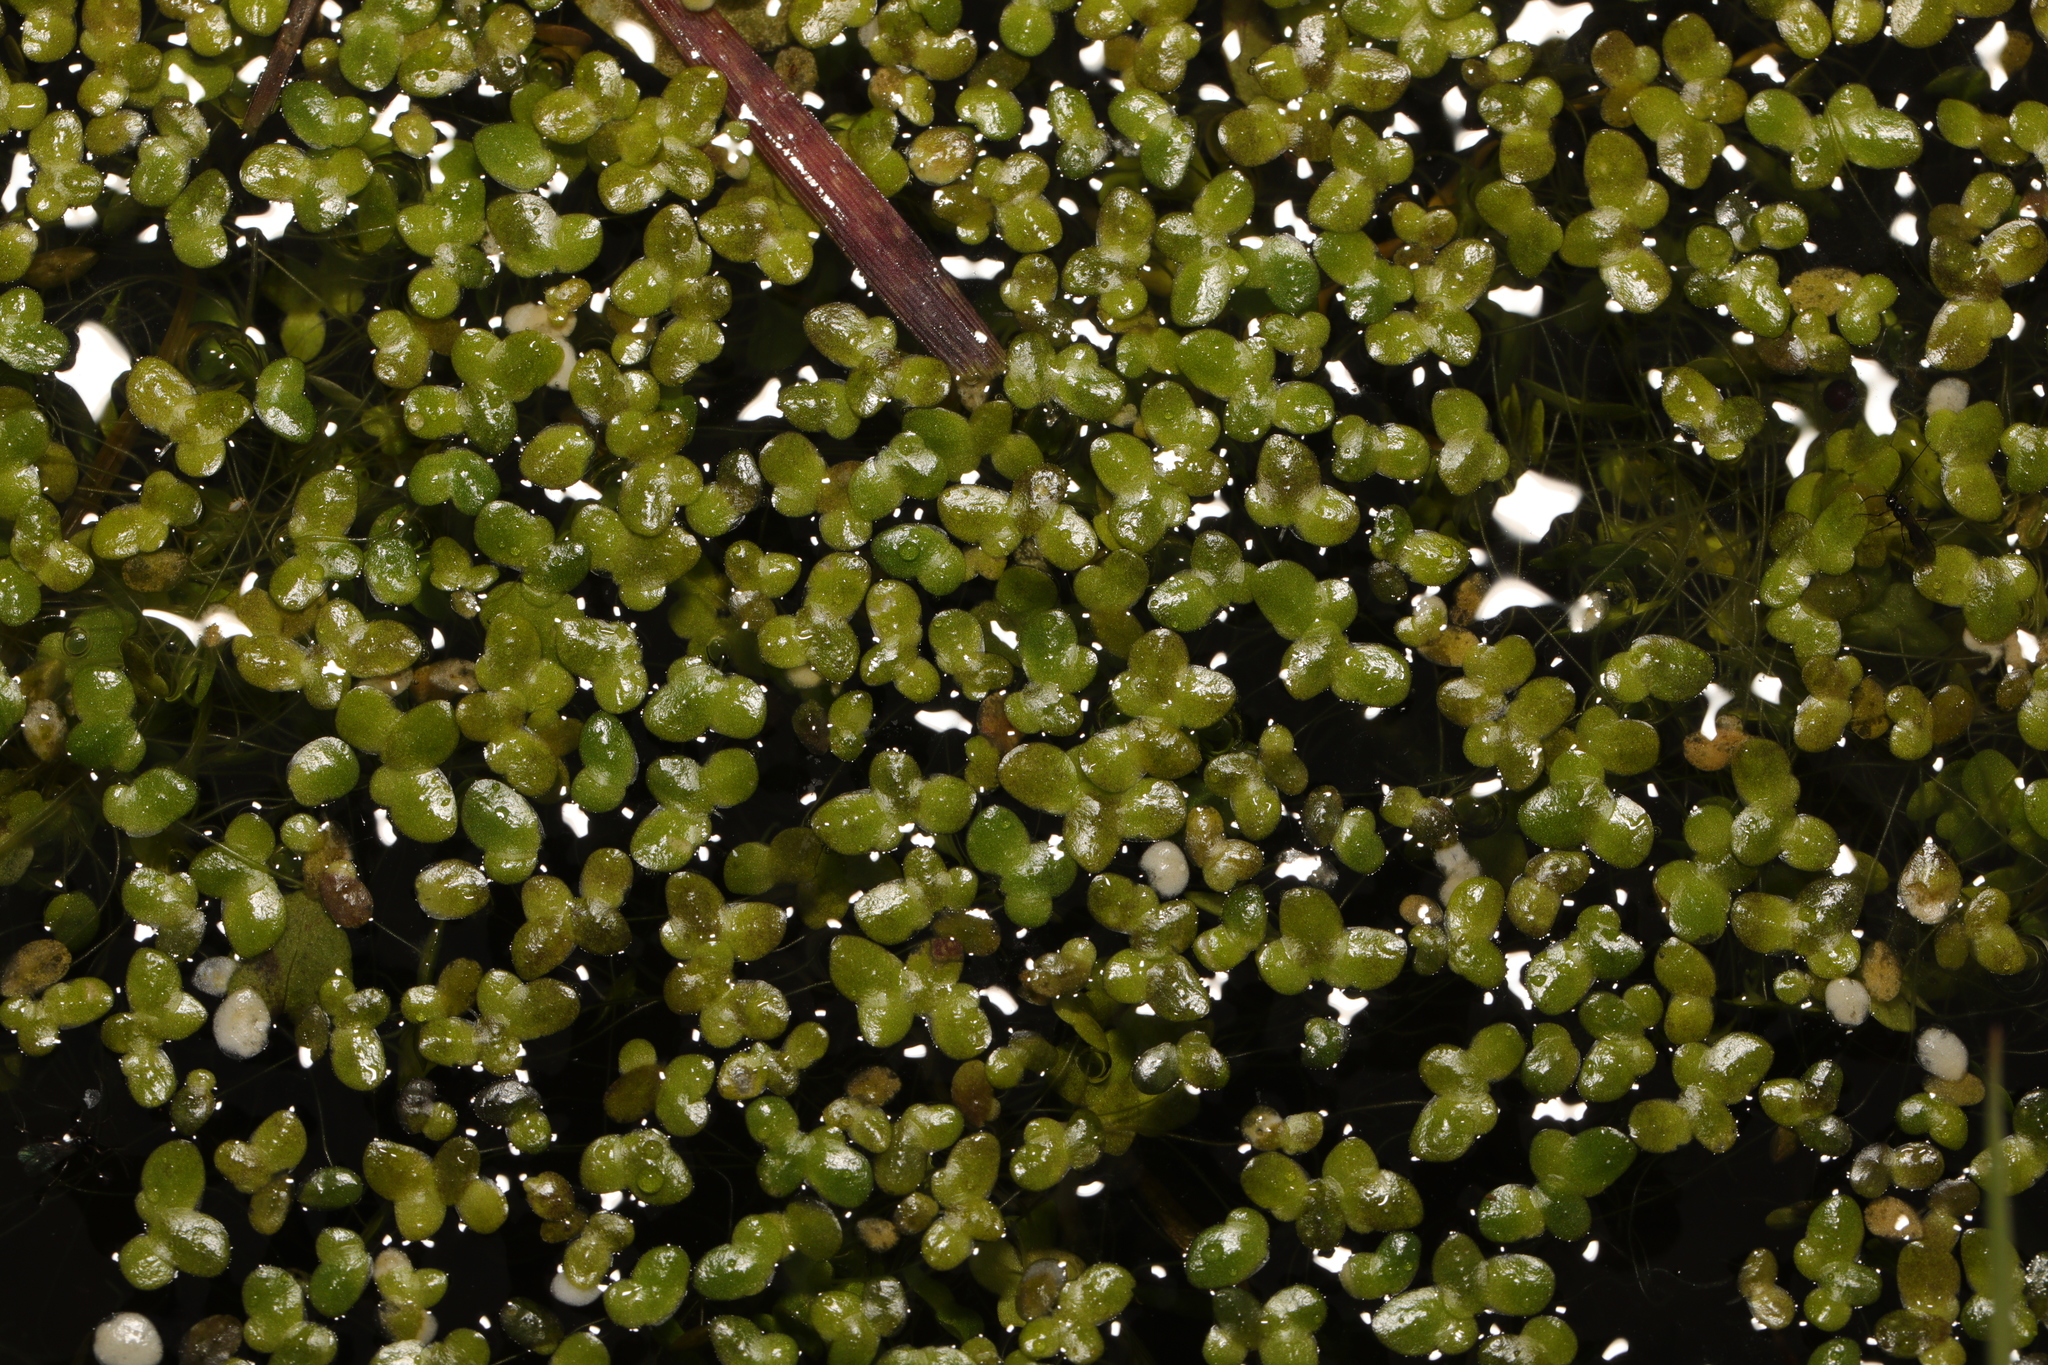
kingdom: Plantae
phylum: Tracheophyta
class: Liliopsida
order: Alismatales
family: Araceae
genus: Lemna
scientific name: Lemna minor
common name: Common duckweed
